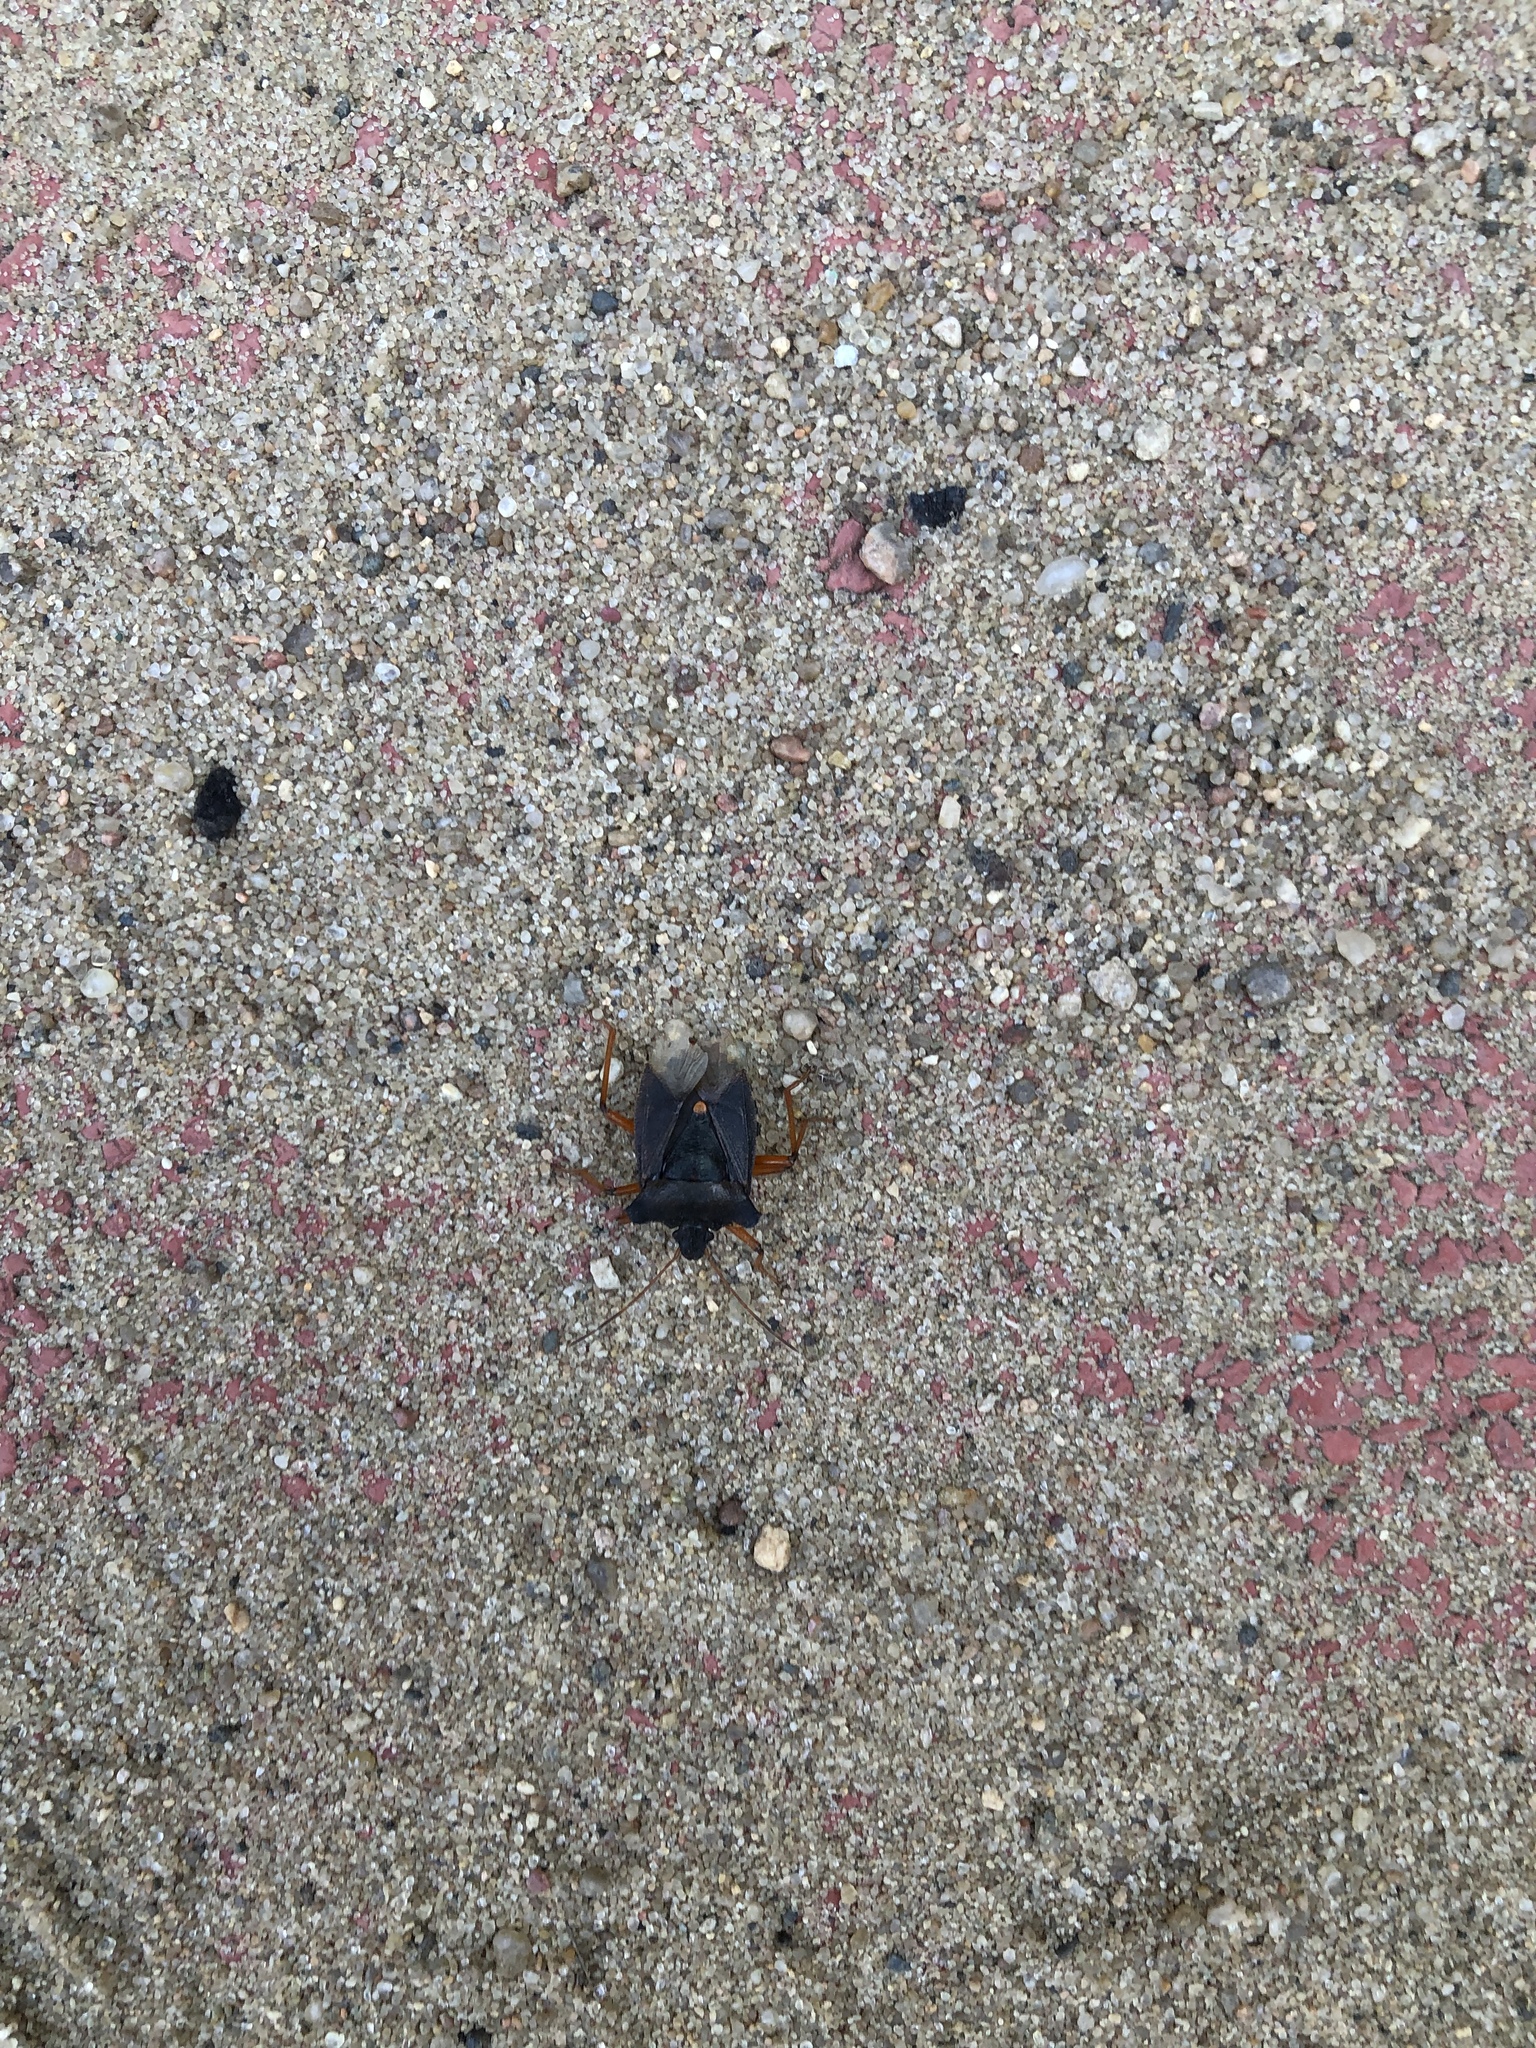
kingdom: Animalia
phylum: Arthropoda
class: Insecta
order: Hemiptera
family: Pentatomidae
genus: Pentatoma
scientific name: Pentatoma rufipes
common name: Forest bug
